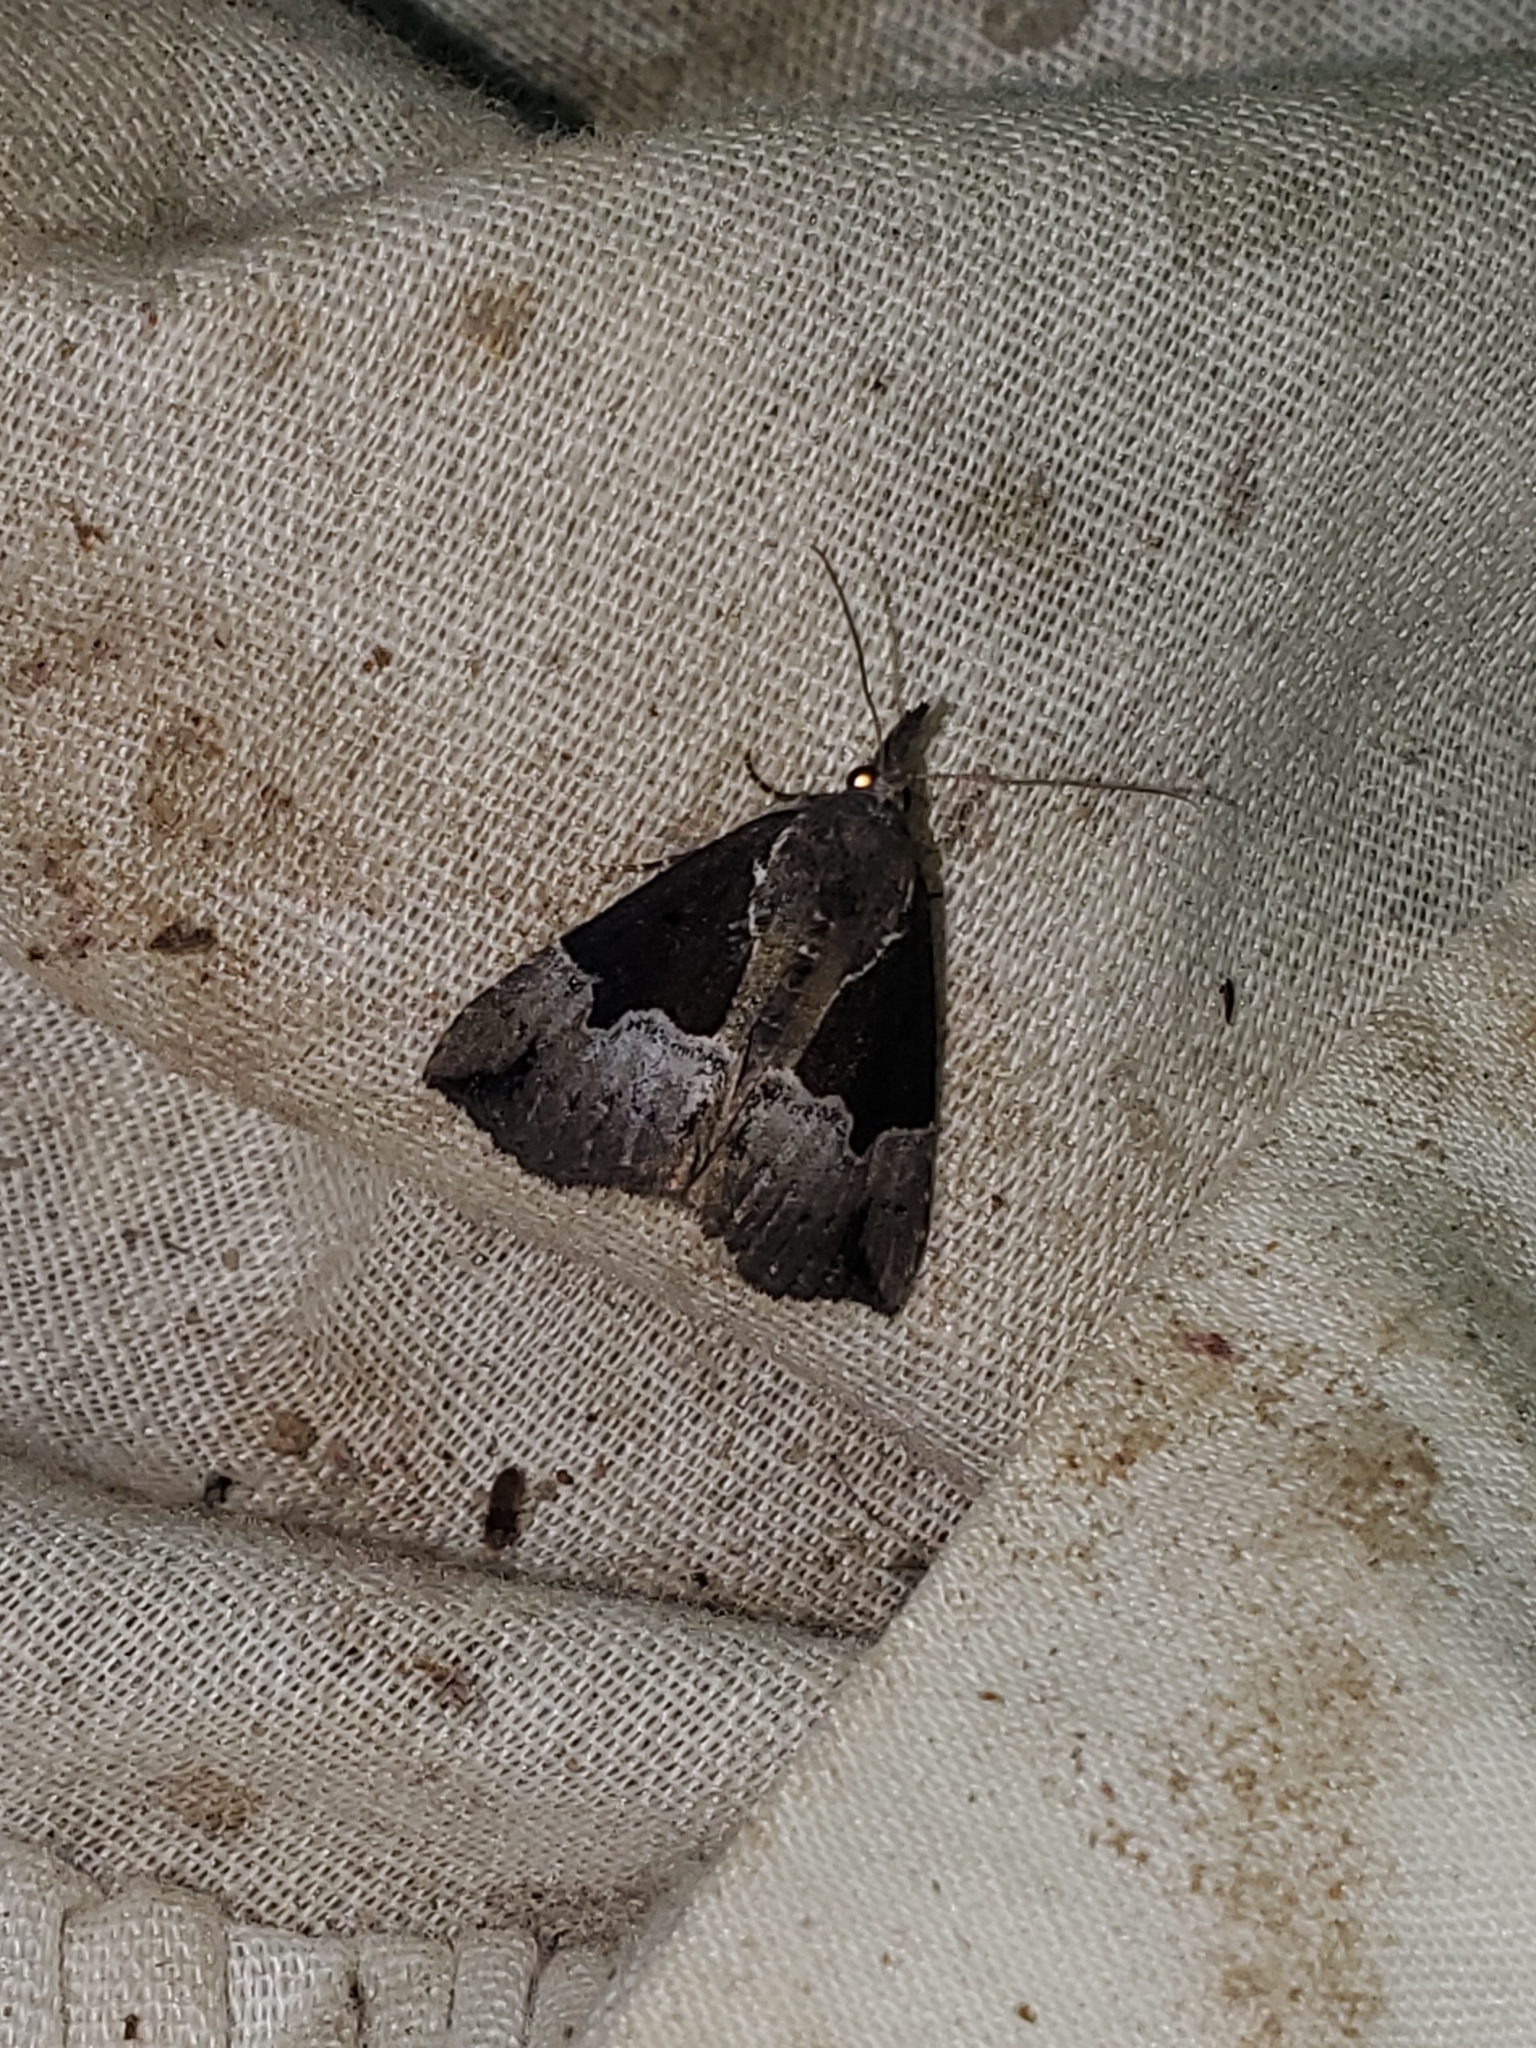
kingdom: Animalia
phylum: Arthropoda
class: Insecta
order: Lepidoptera
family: Erebidae
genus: Hypena
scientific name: Hypena bijugalis
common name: Dimorphic bomolocha moth
